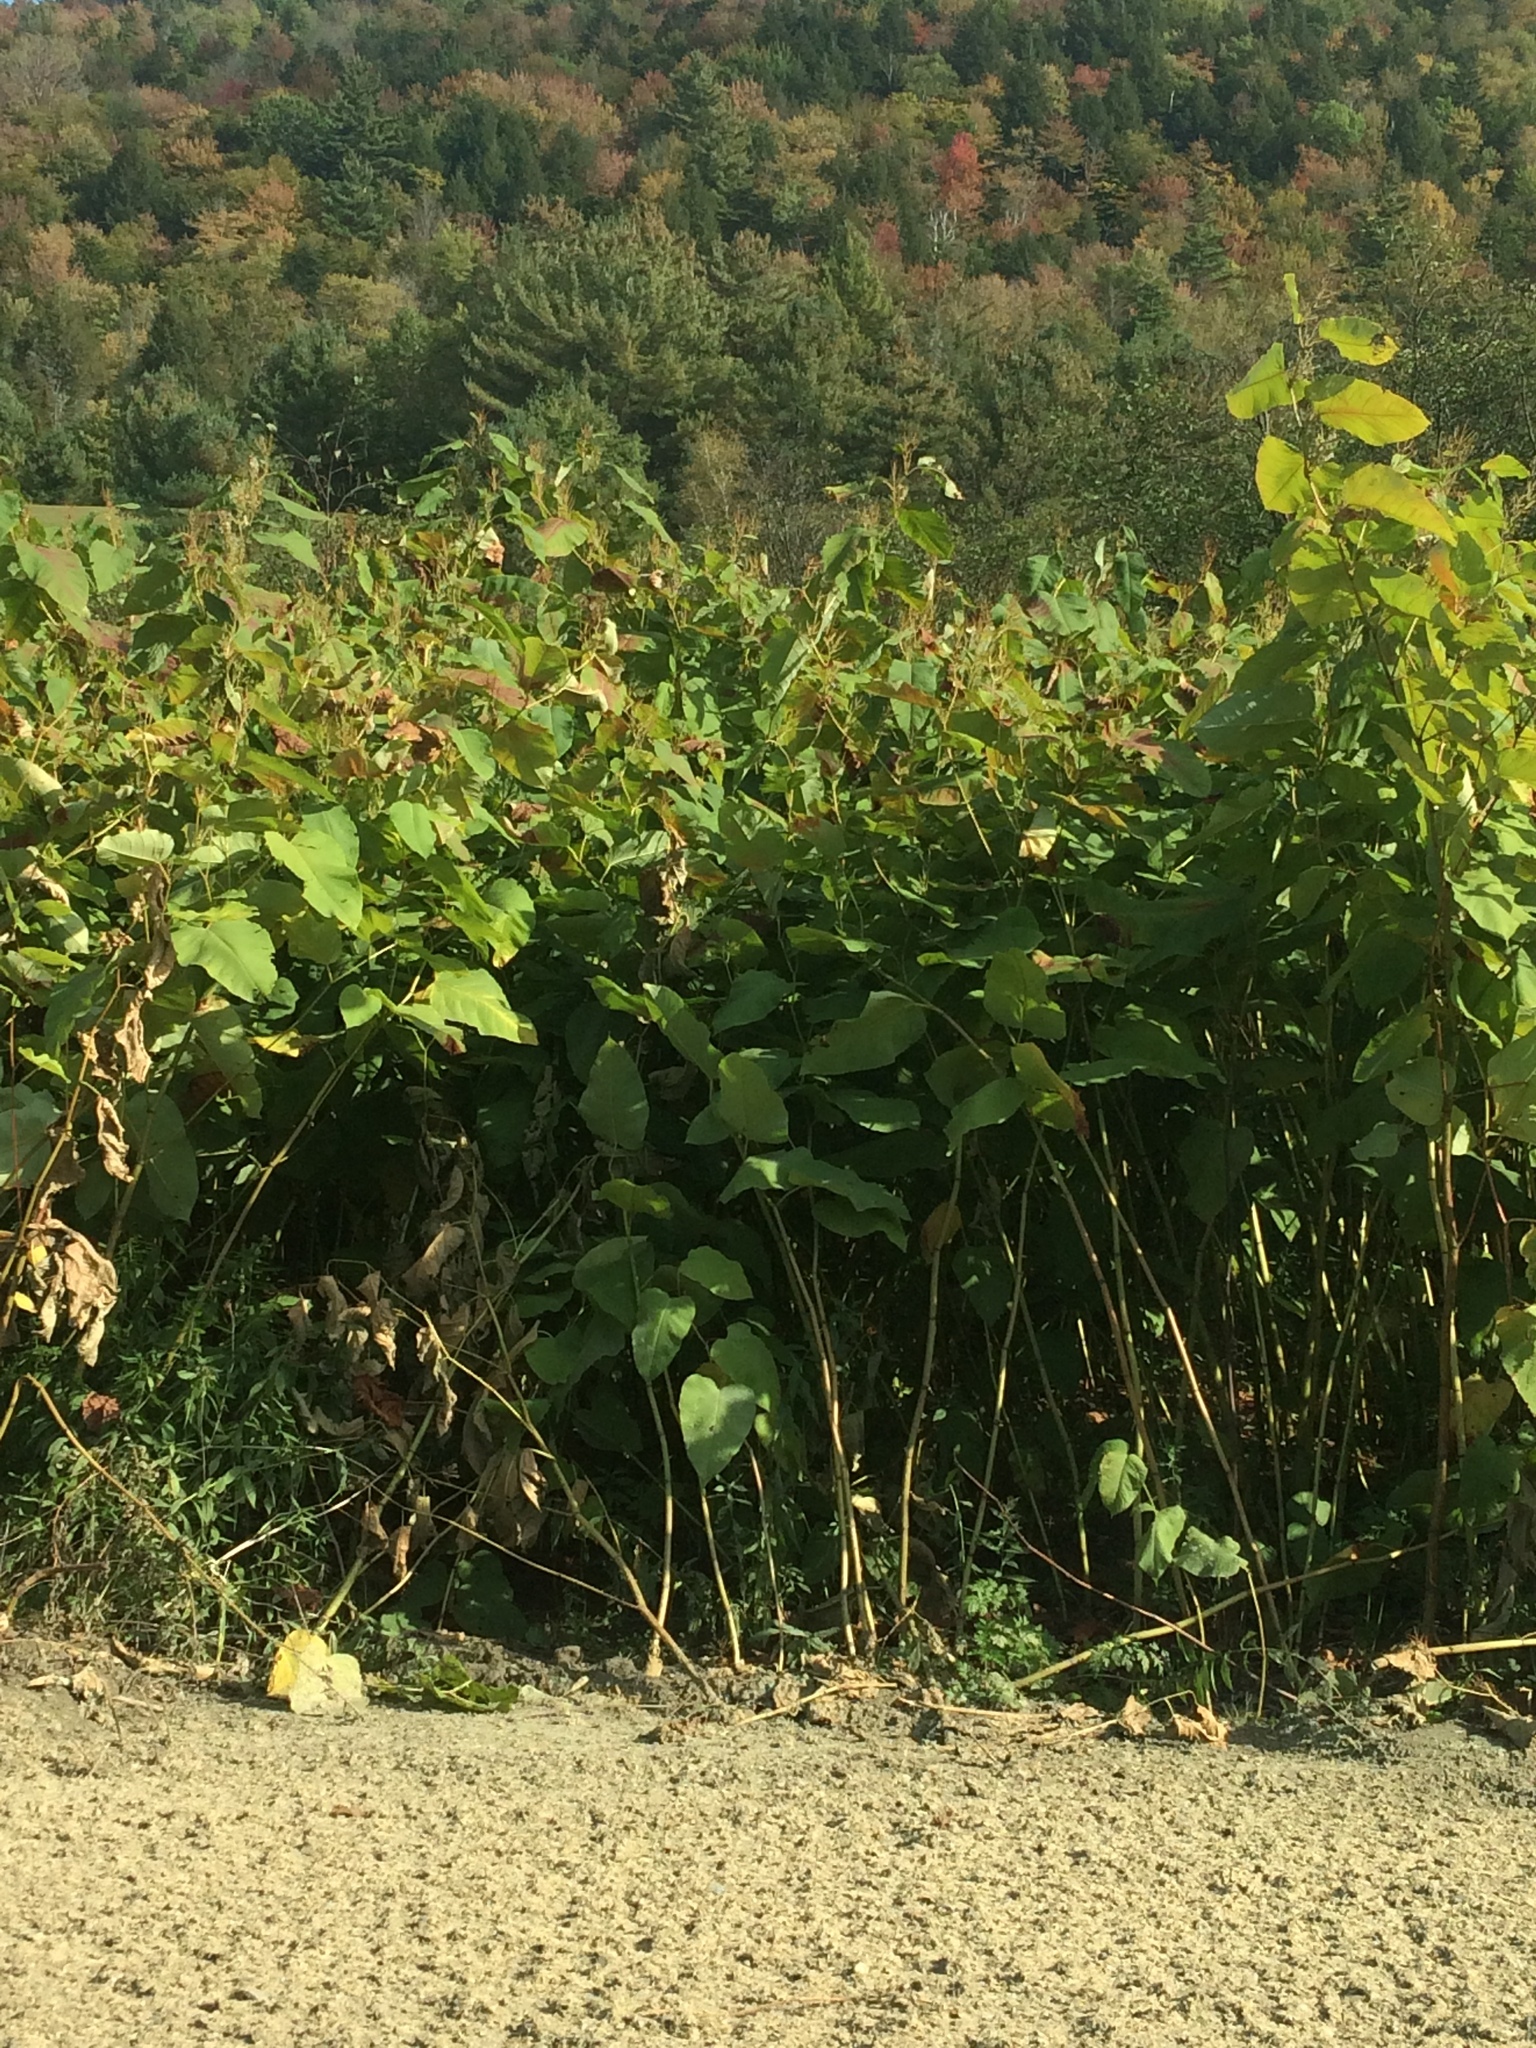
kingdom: Plantae
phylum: Tracheophyta
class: Magnoliopsida
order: Caryophyllales
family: Polygonaceae
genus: Reynoutria
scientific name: Reynoutria sachalinensis
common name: Giant knotweed
